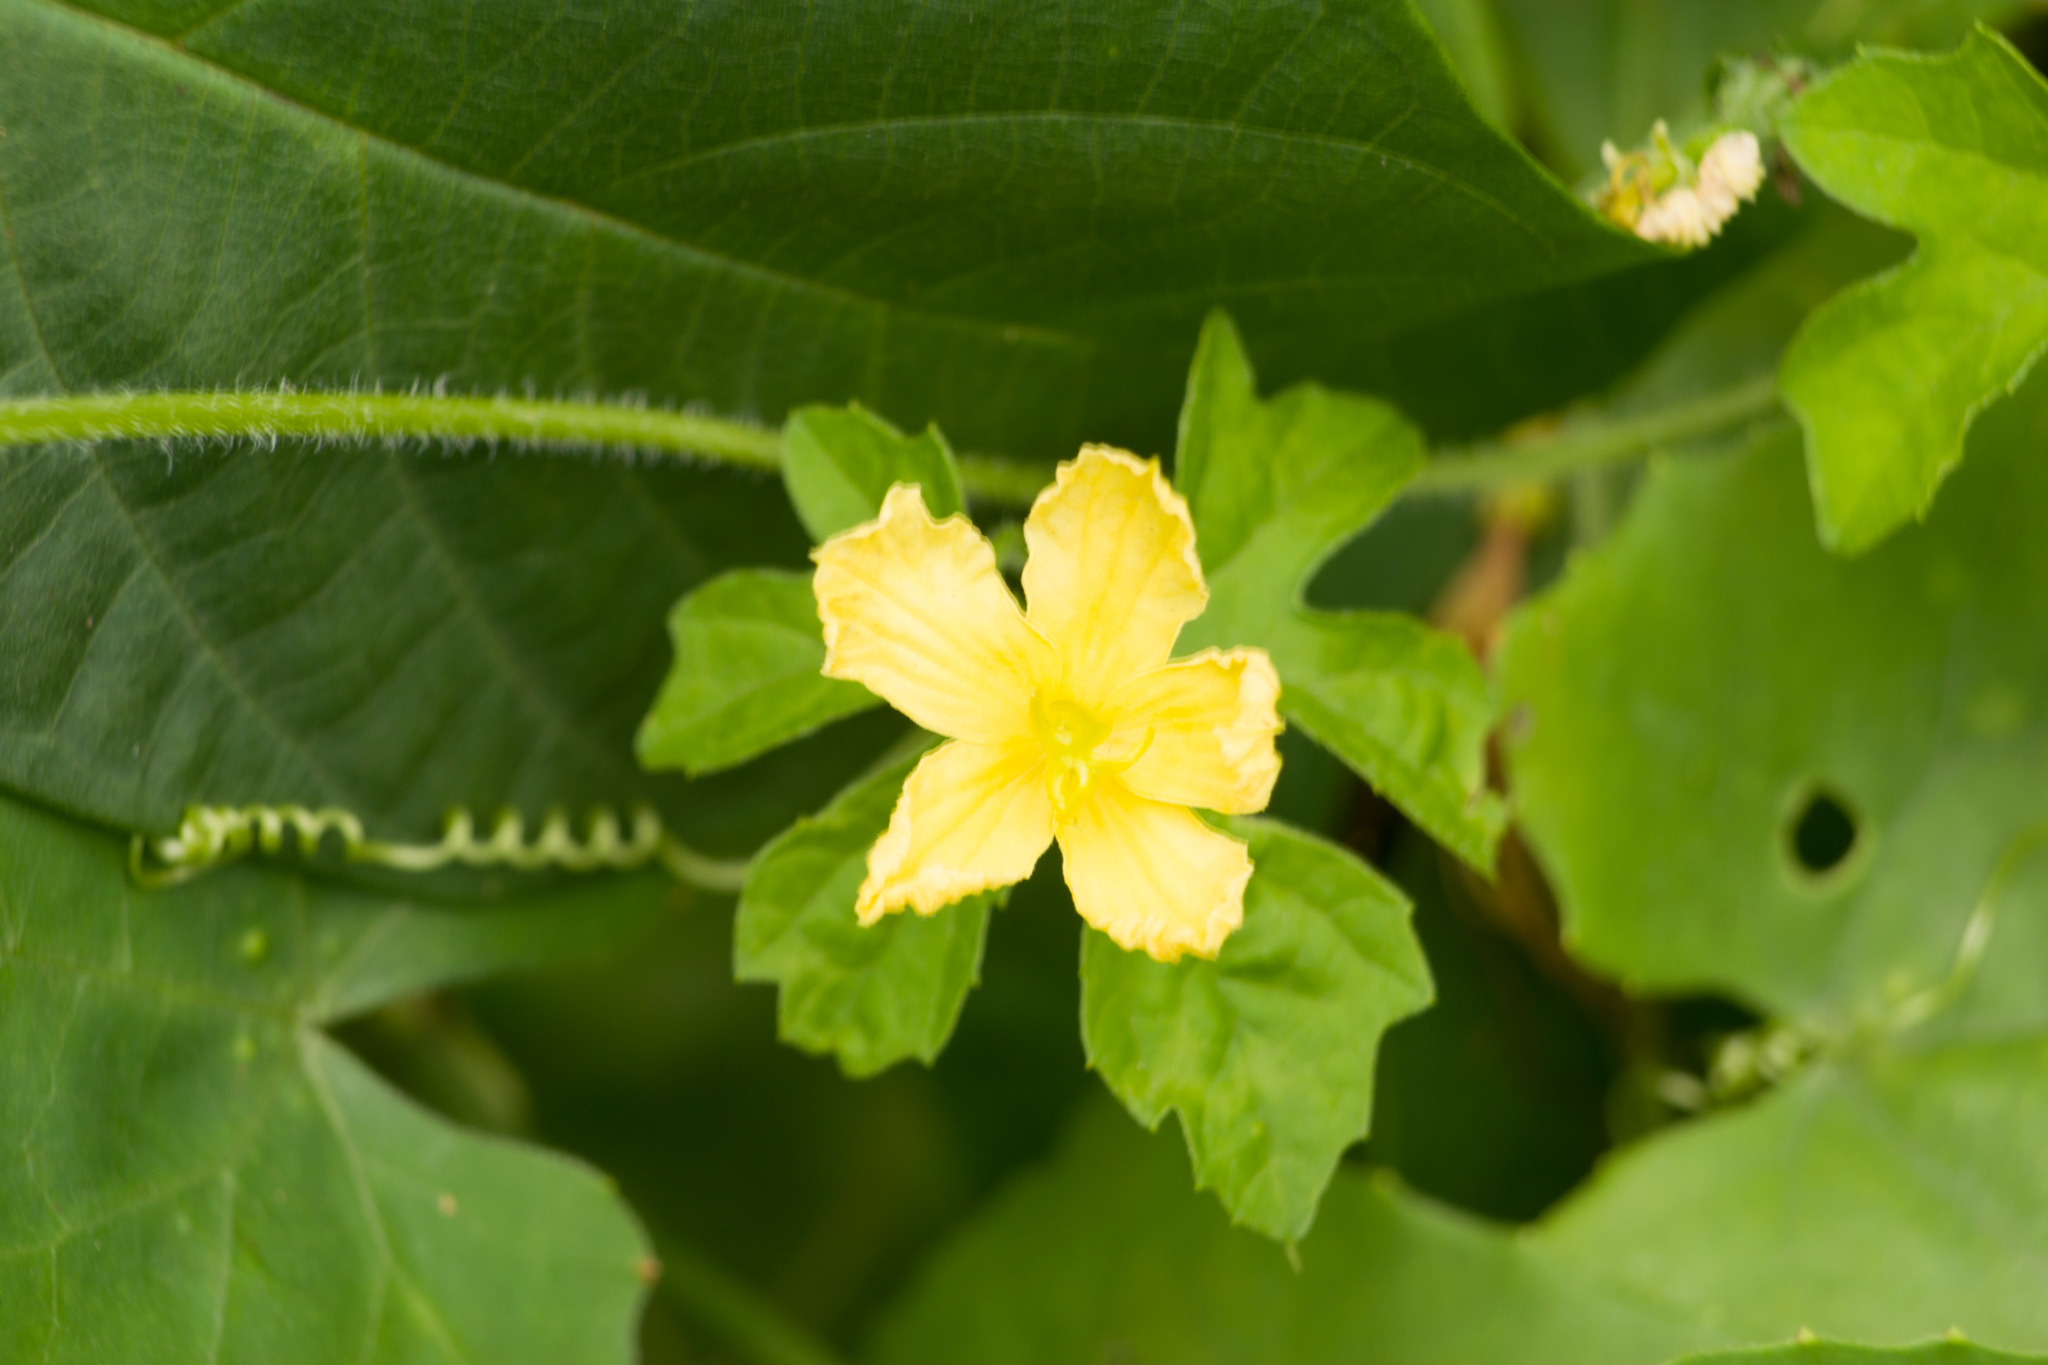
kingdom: Plantae
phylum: Tracheophyta
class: Magnoliopsida
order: Cucurbitales
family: Cucurbitaceae
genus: Momordica
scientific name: Momordica charantia
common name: Balsampear
